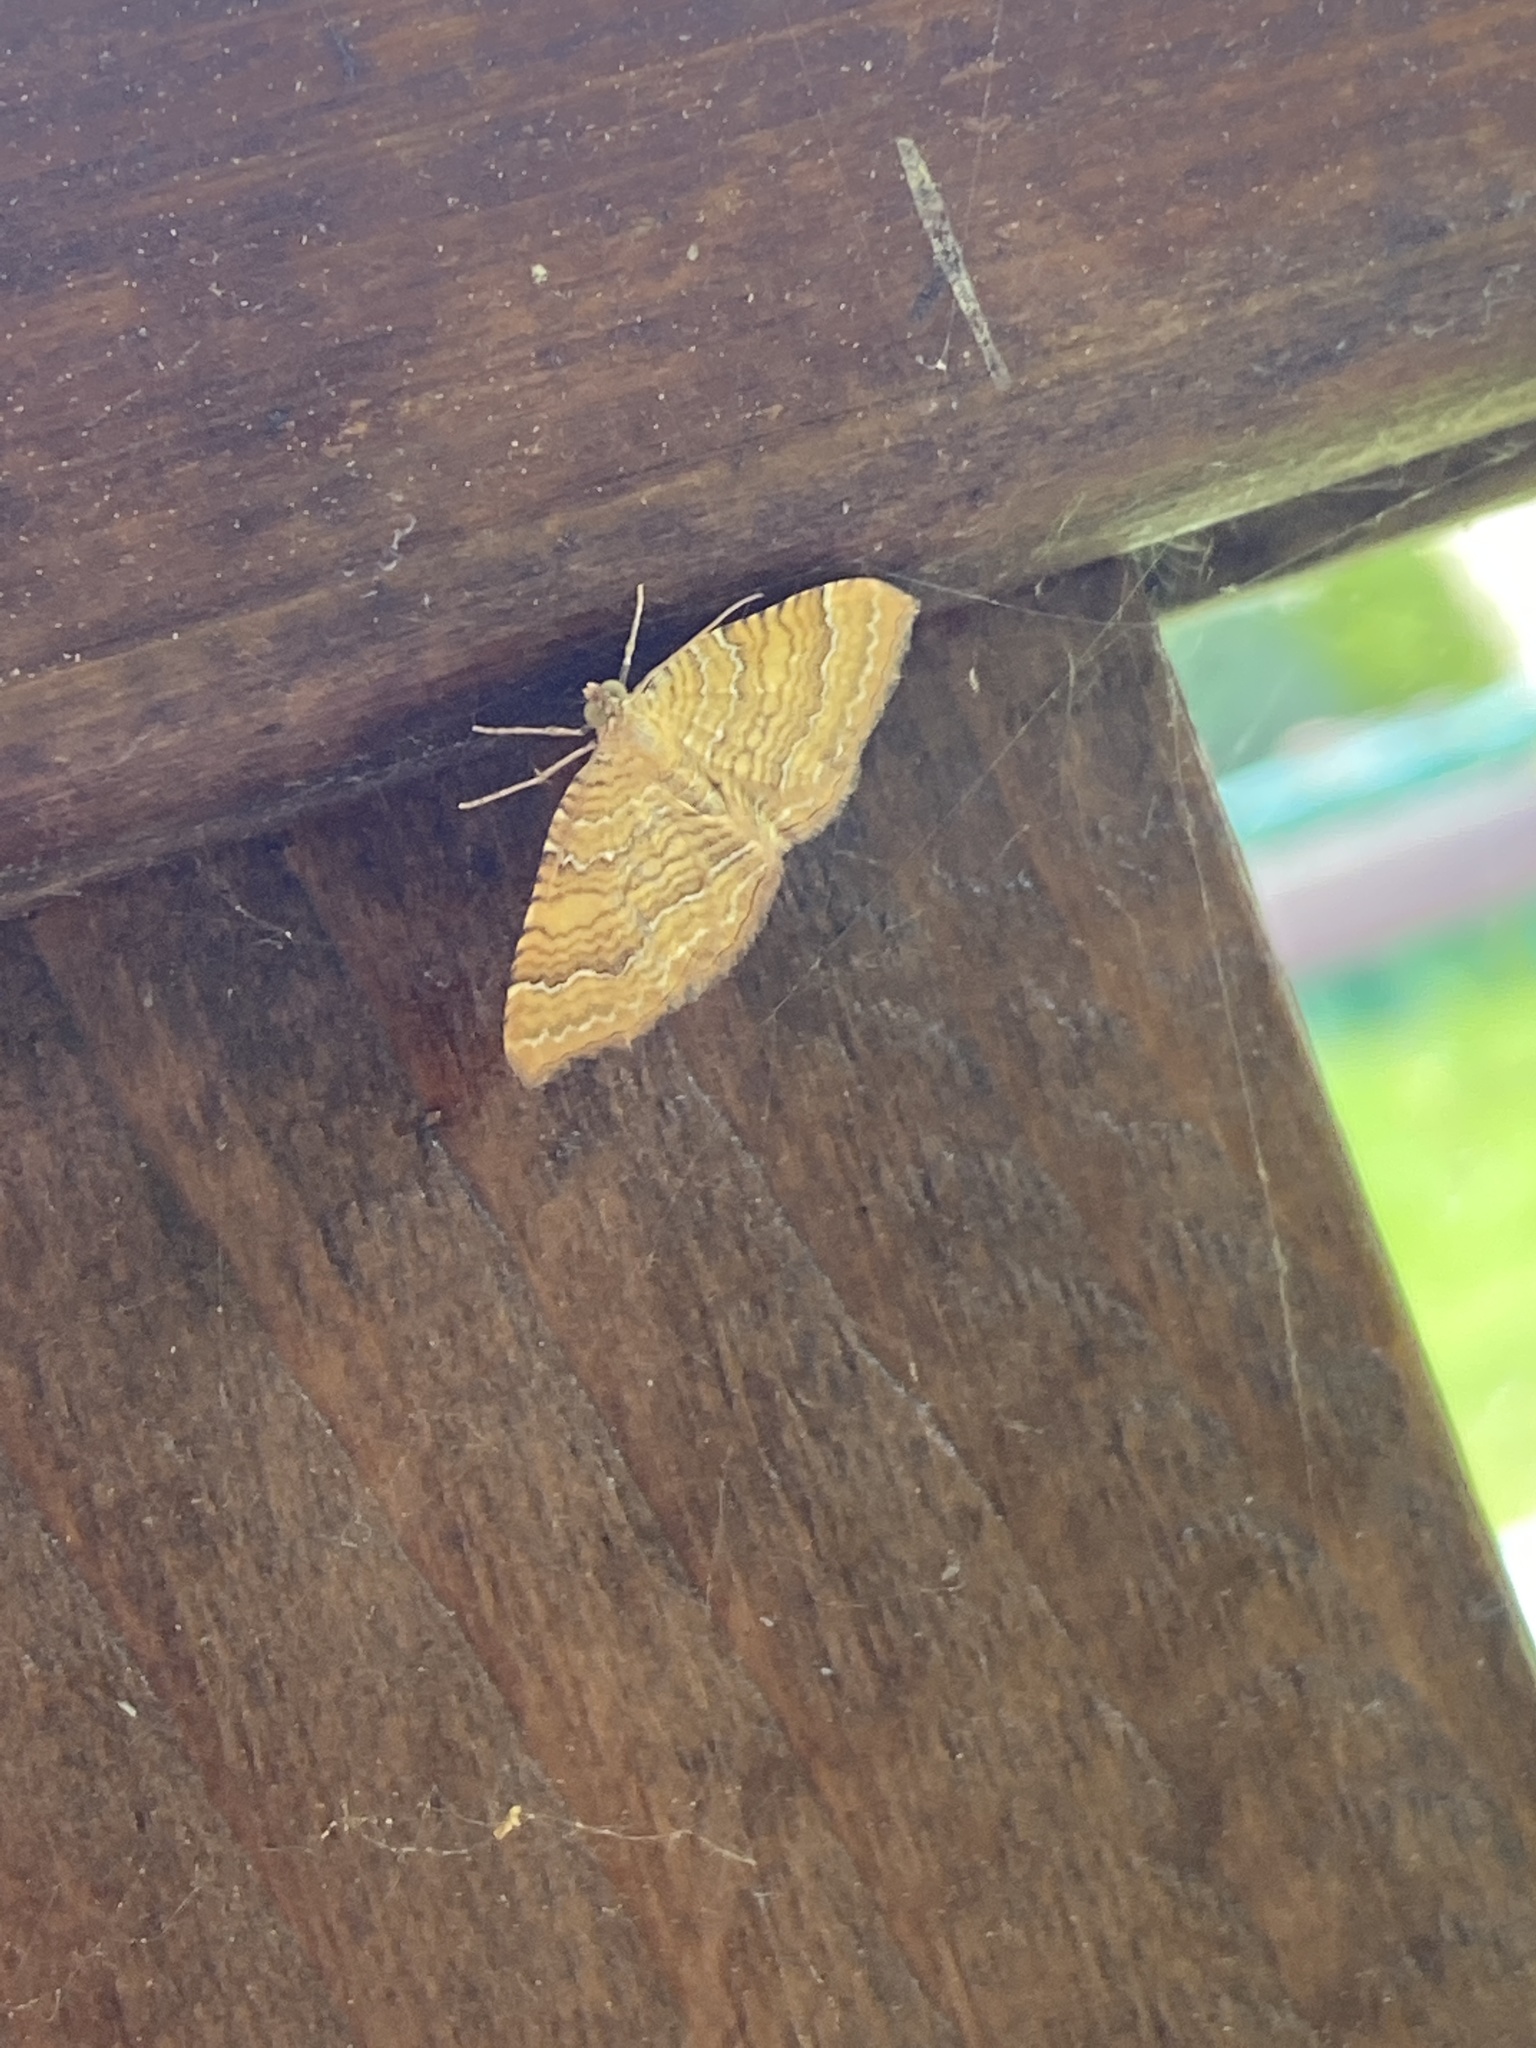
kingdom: Animalia
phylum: Arthropoda
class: Insecta
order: Lepidoptera
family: Geometridae
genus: Camptogramma
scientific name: Camptogramma bilineata
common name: Yellow shell
